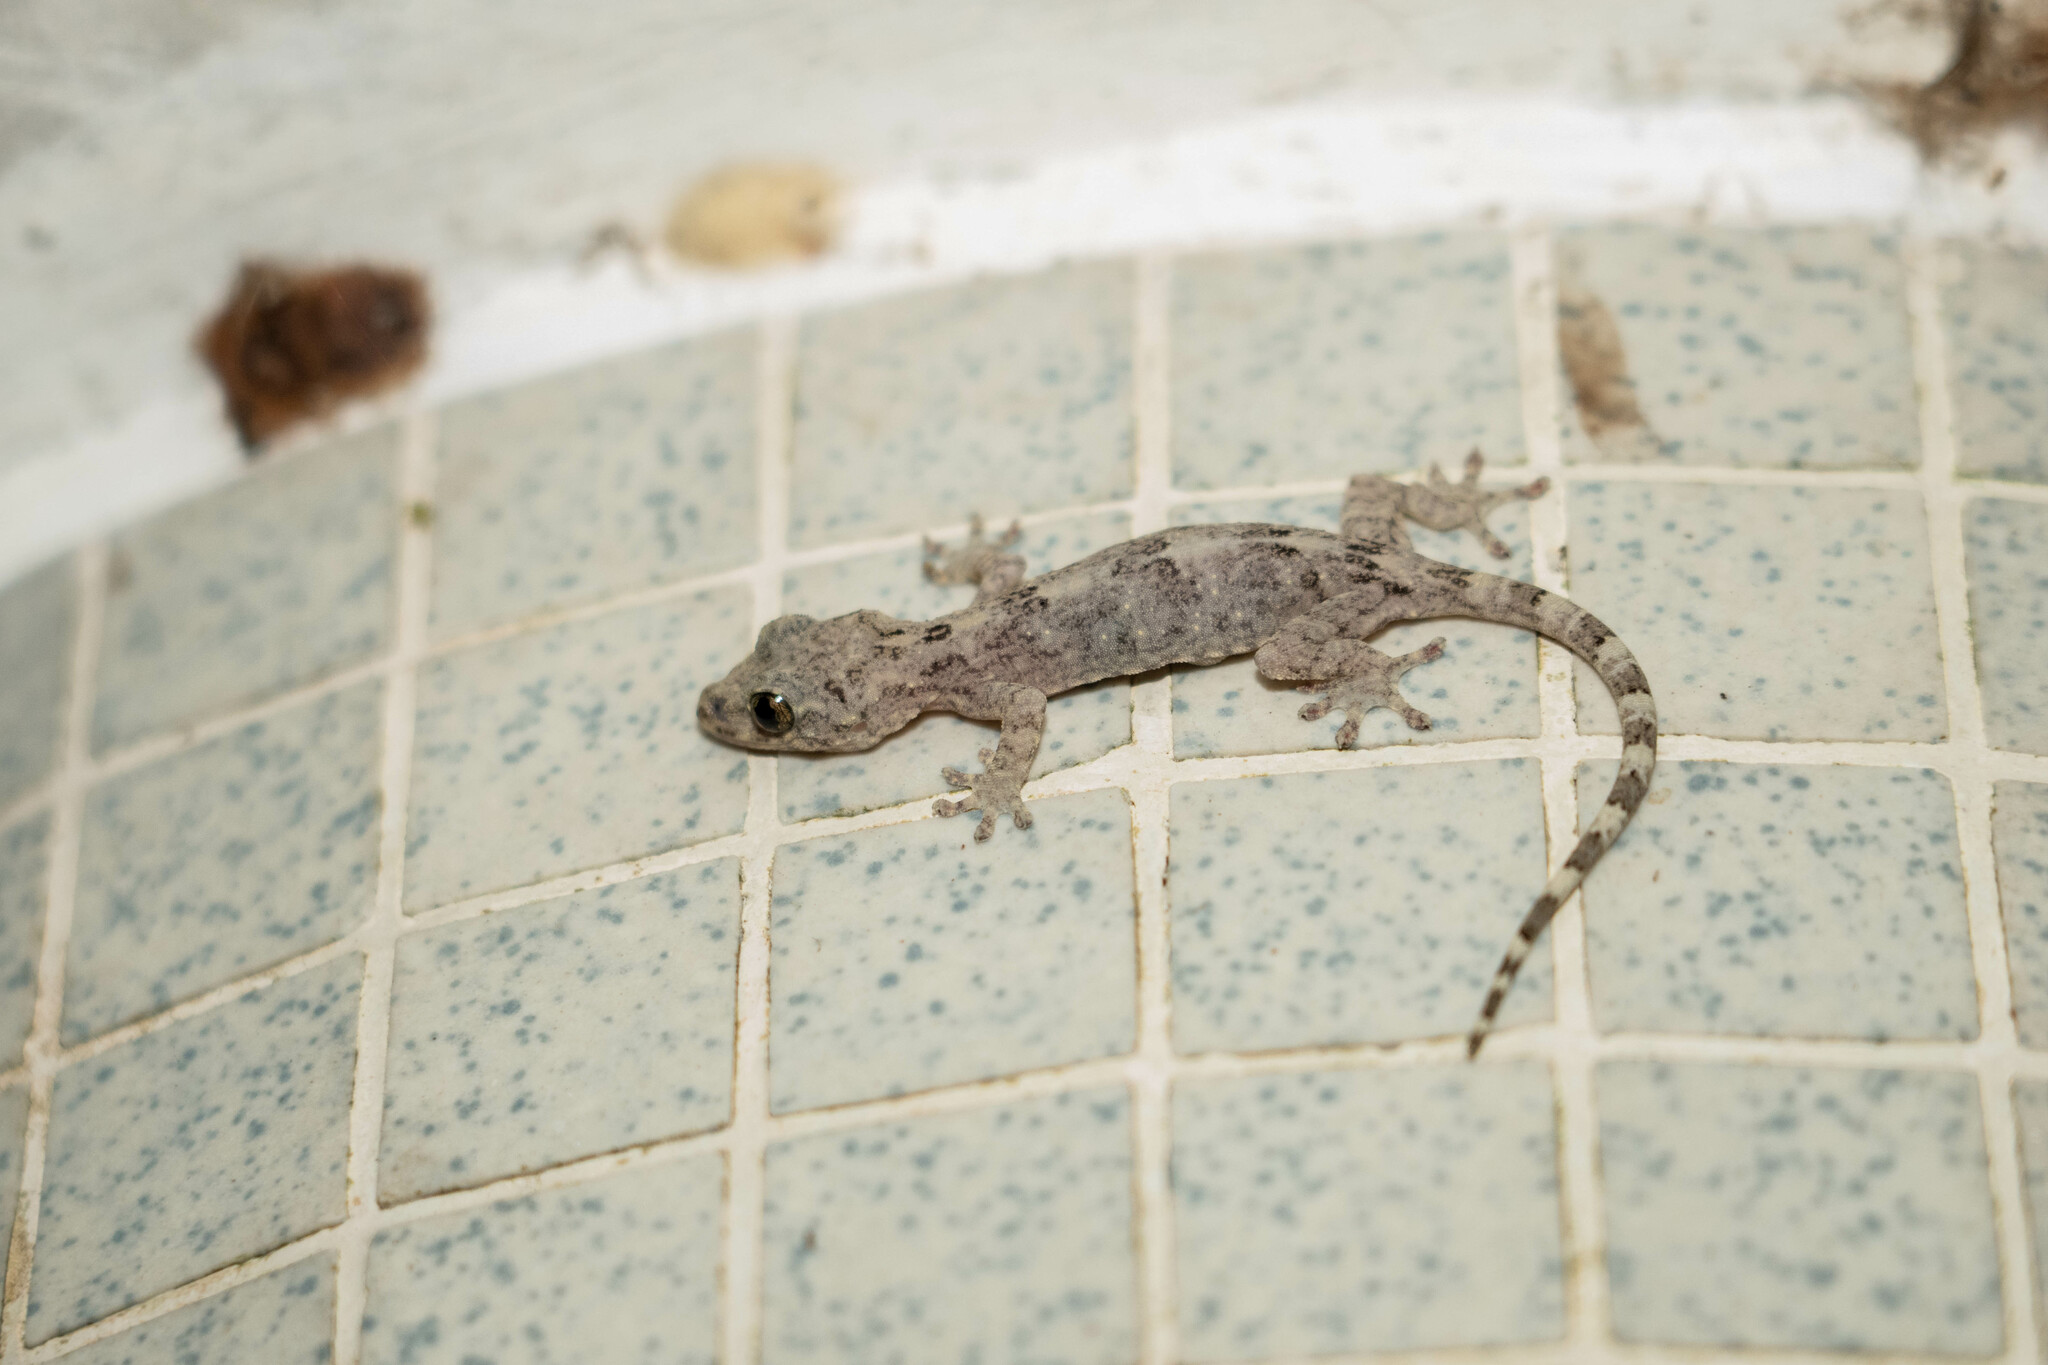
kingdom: Animalia
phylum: Chordata
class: Squamata
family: Gekkonidae
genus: Gekko
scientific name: Gekko chinensis
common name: Gray's chinese gecko
